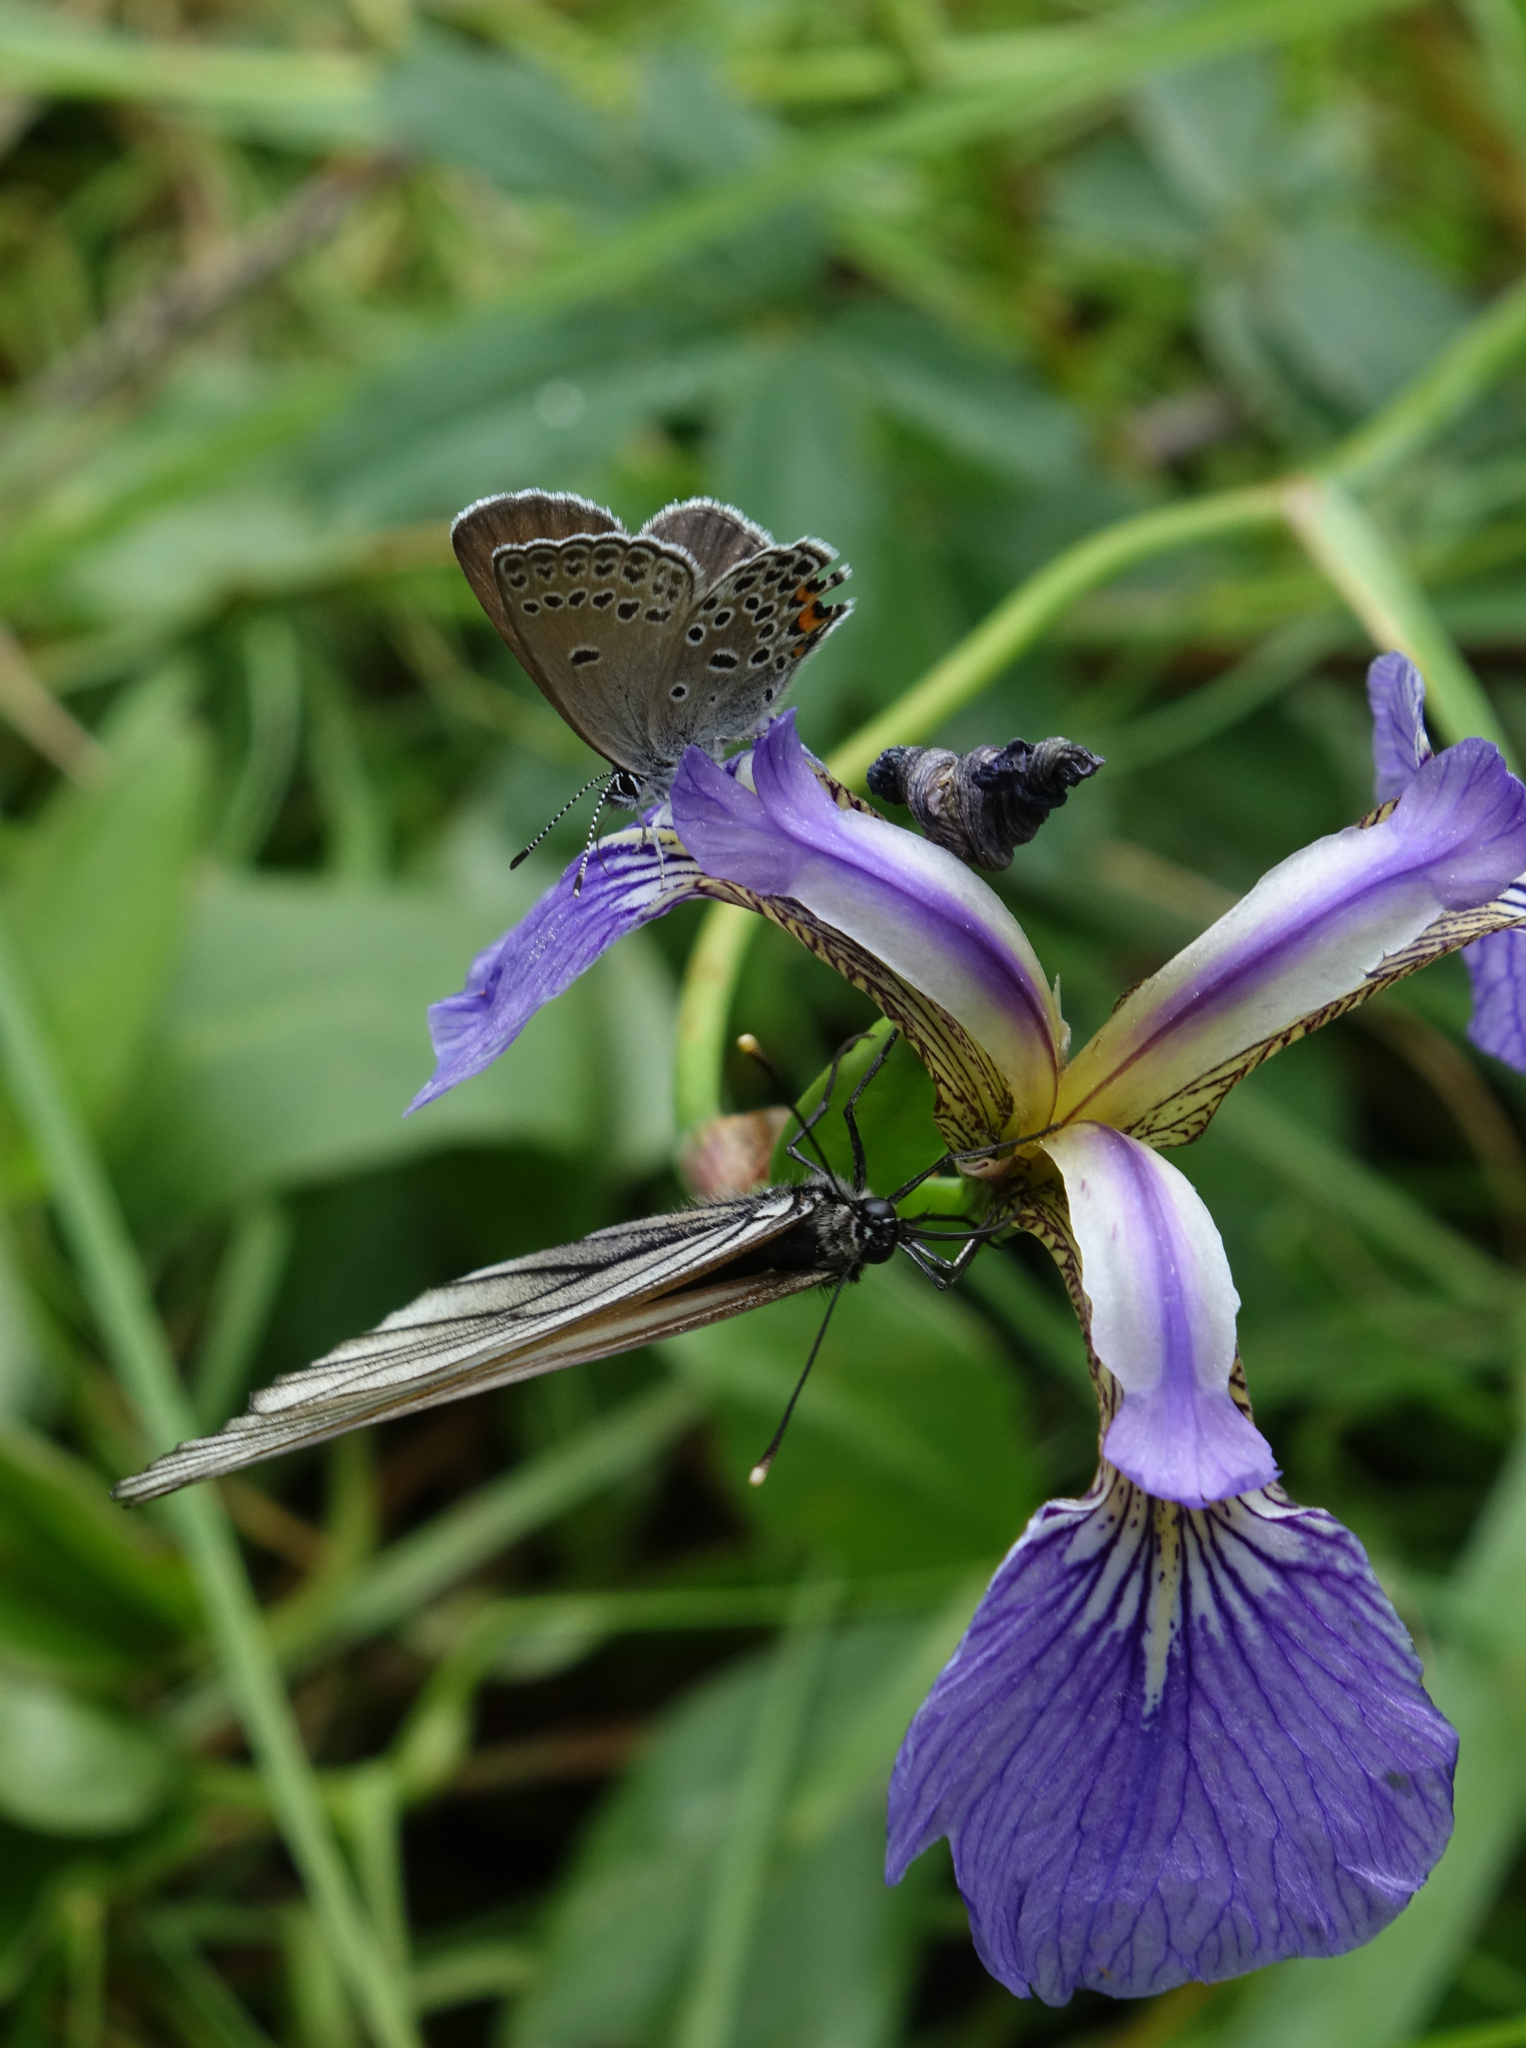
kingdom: Animalia
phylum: Arthropoda
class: Insecta
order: Lepidoptera
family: Lycaenidae
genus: Vacciniina
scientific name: Vacciniina optilete
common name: Cranberry blue
